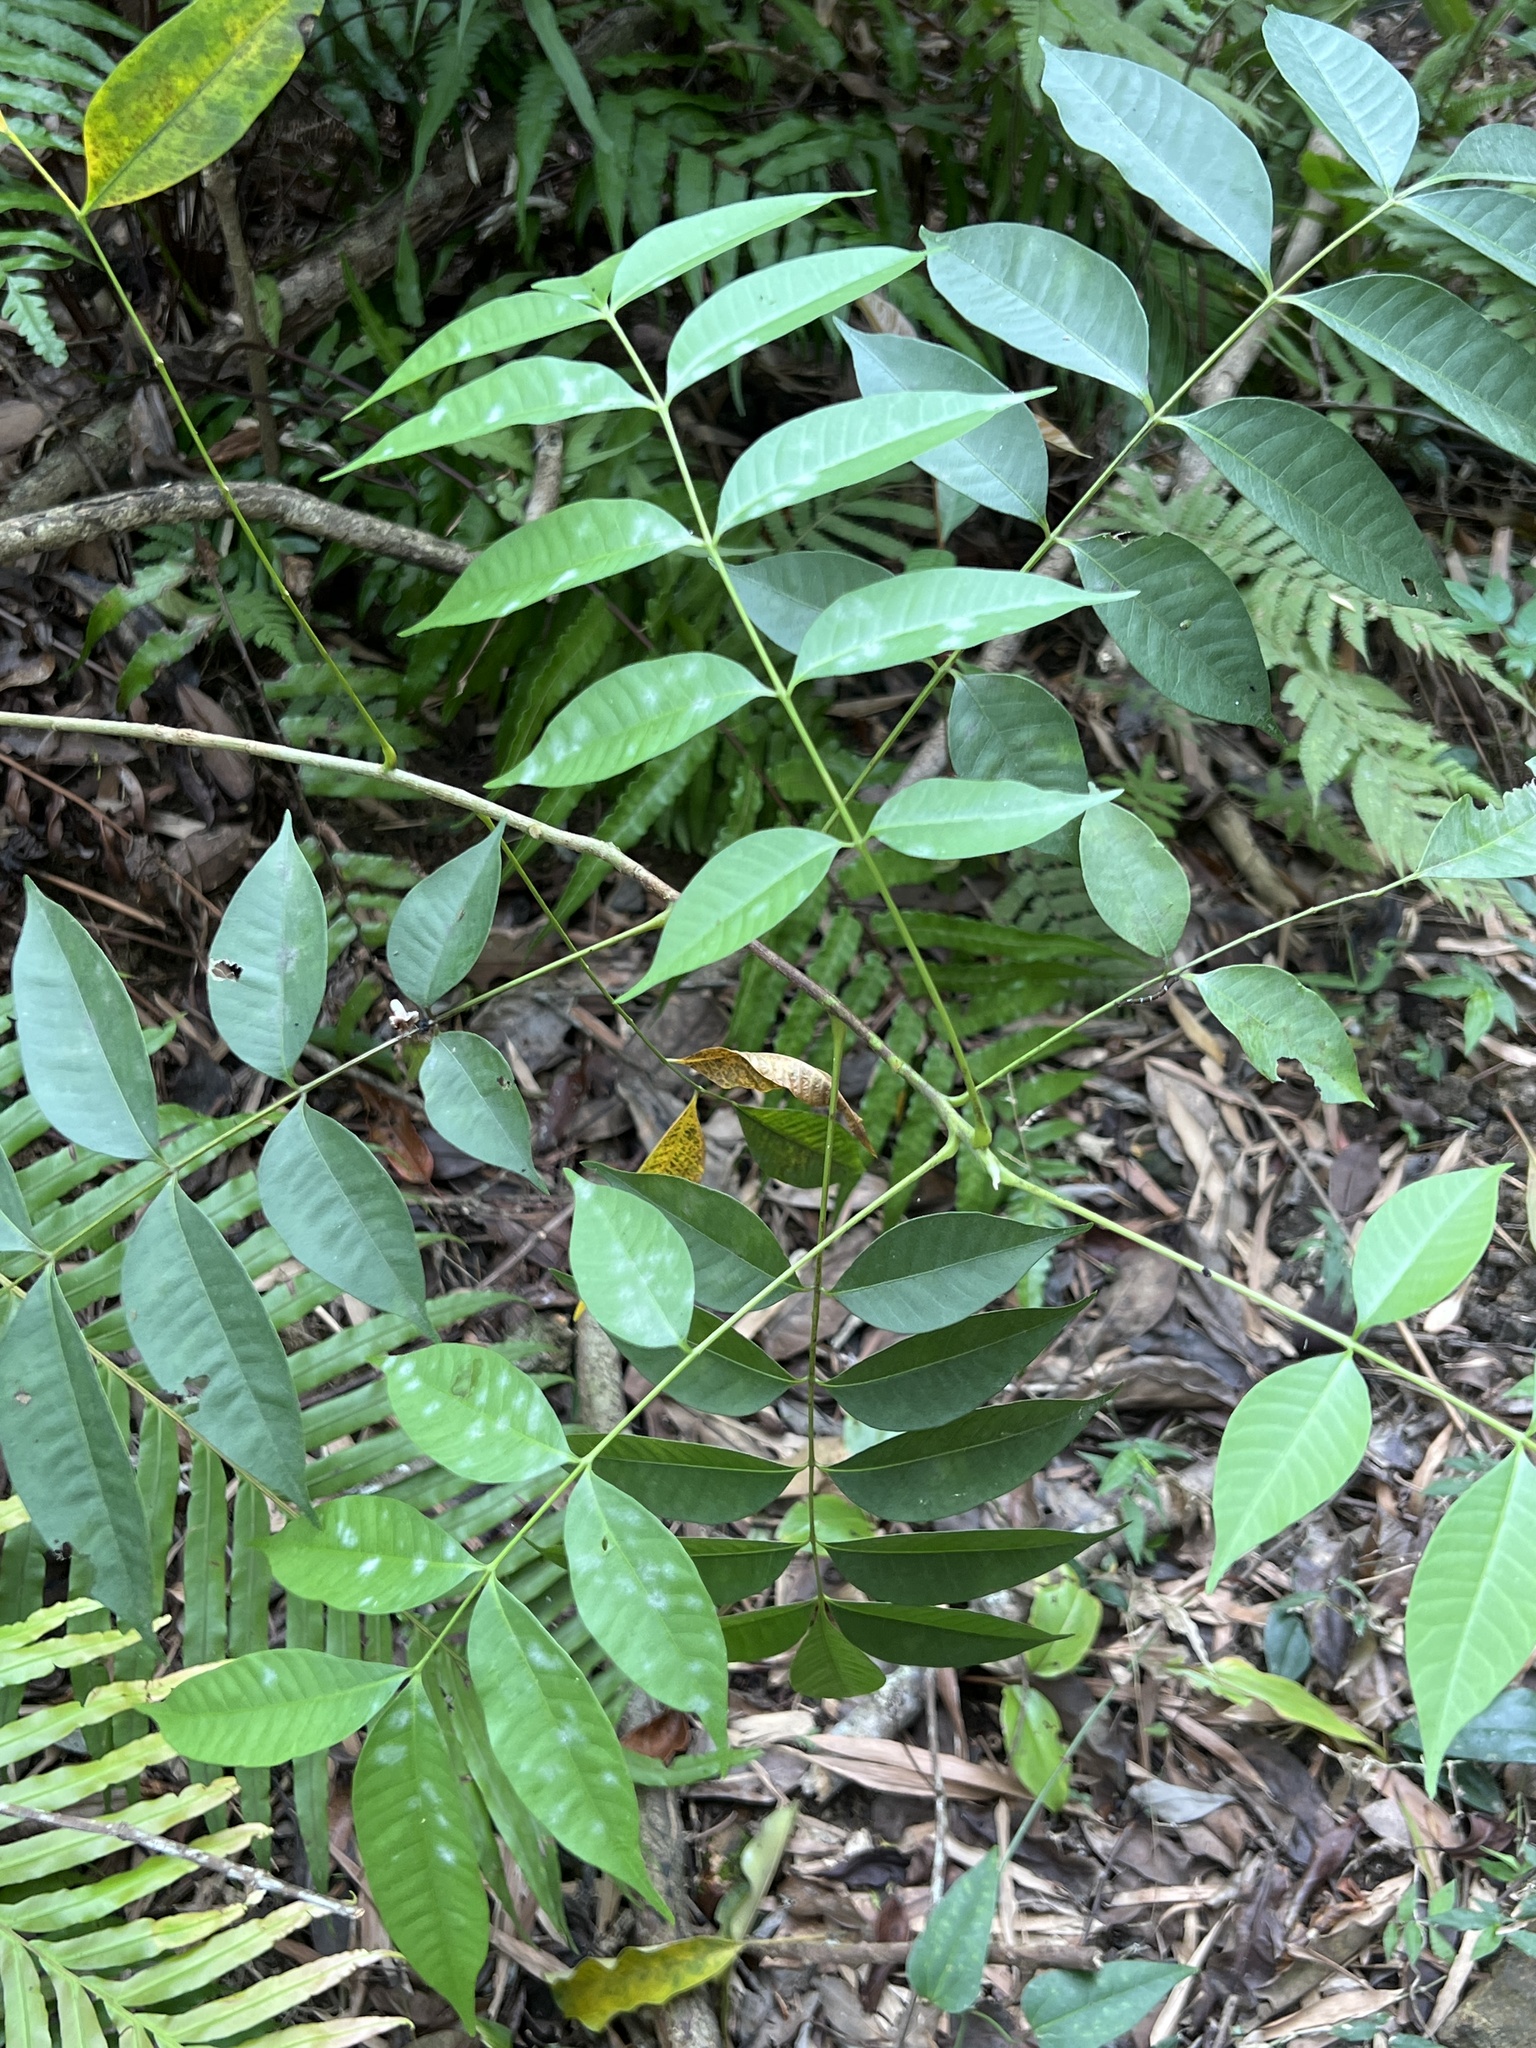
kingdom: Plantae
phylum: Tracheophyta
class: Magnoliopsida
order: Sapindales
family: Anacardiaceae
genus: Toxicodendron
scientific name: Toxicodendron succedaneum
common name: Wax tree
